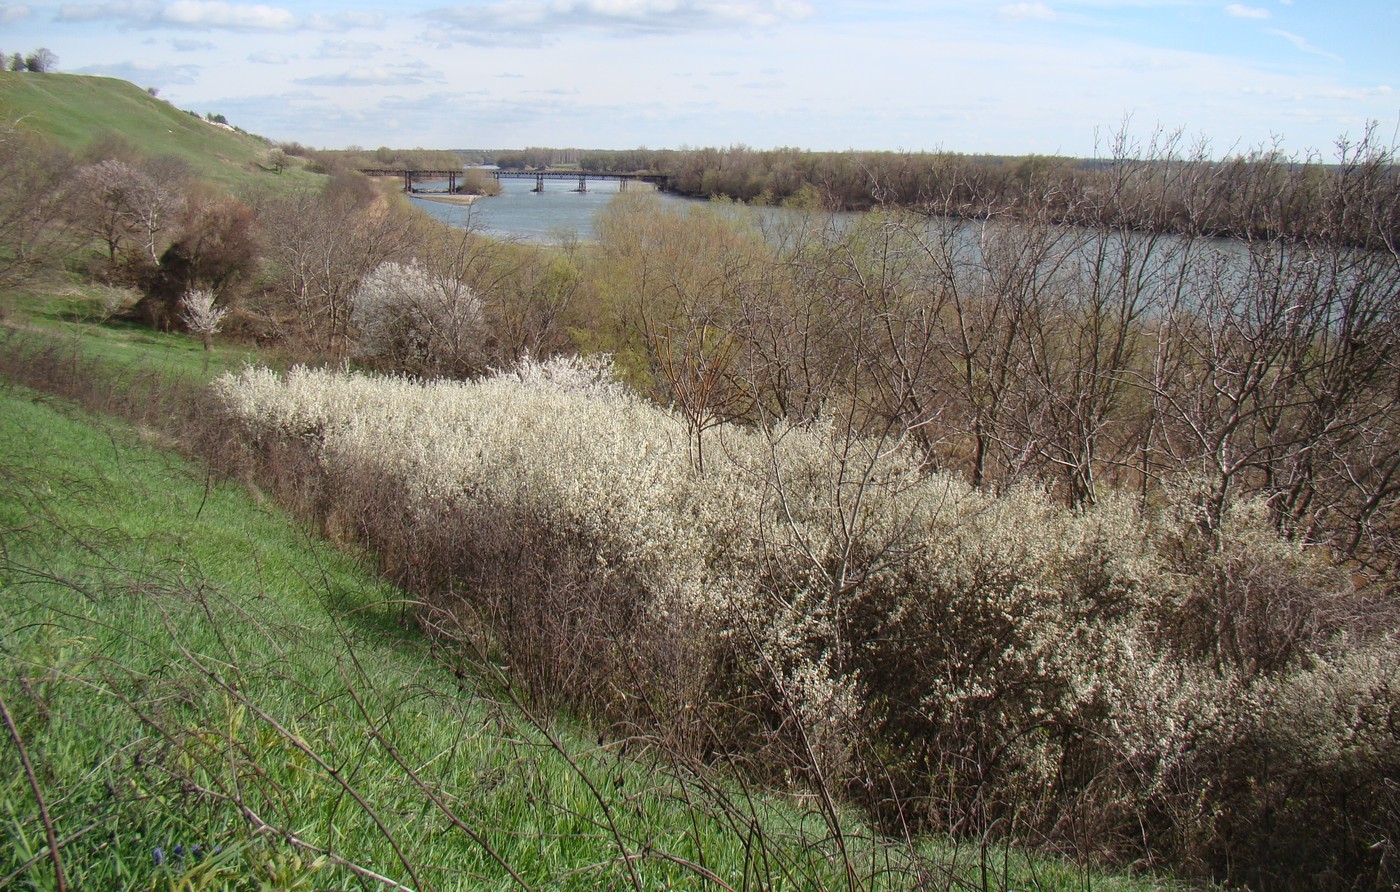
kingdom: Plantae
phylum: Tracheophyta
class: Magnoliopsida
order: Rosales
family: Rosaceae
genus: Prunus
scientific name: Prunus spinosa
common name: Blackthorn
